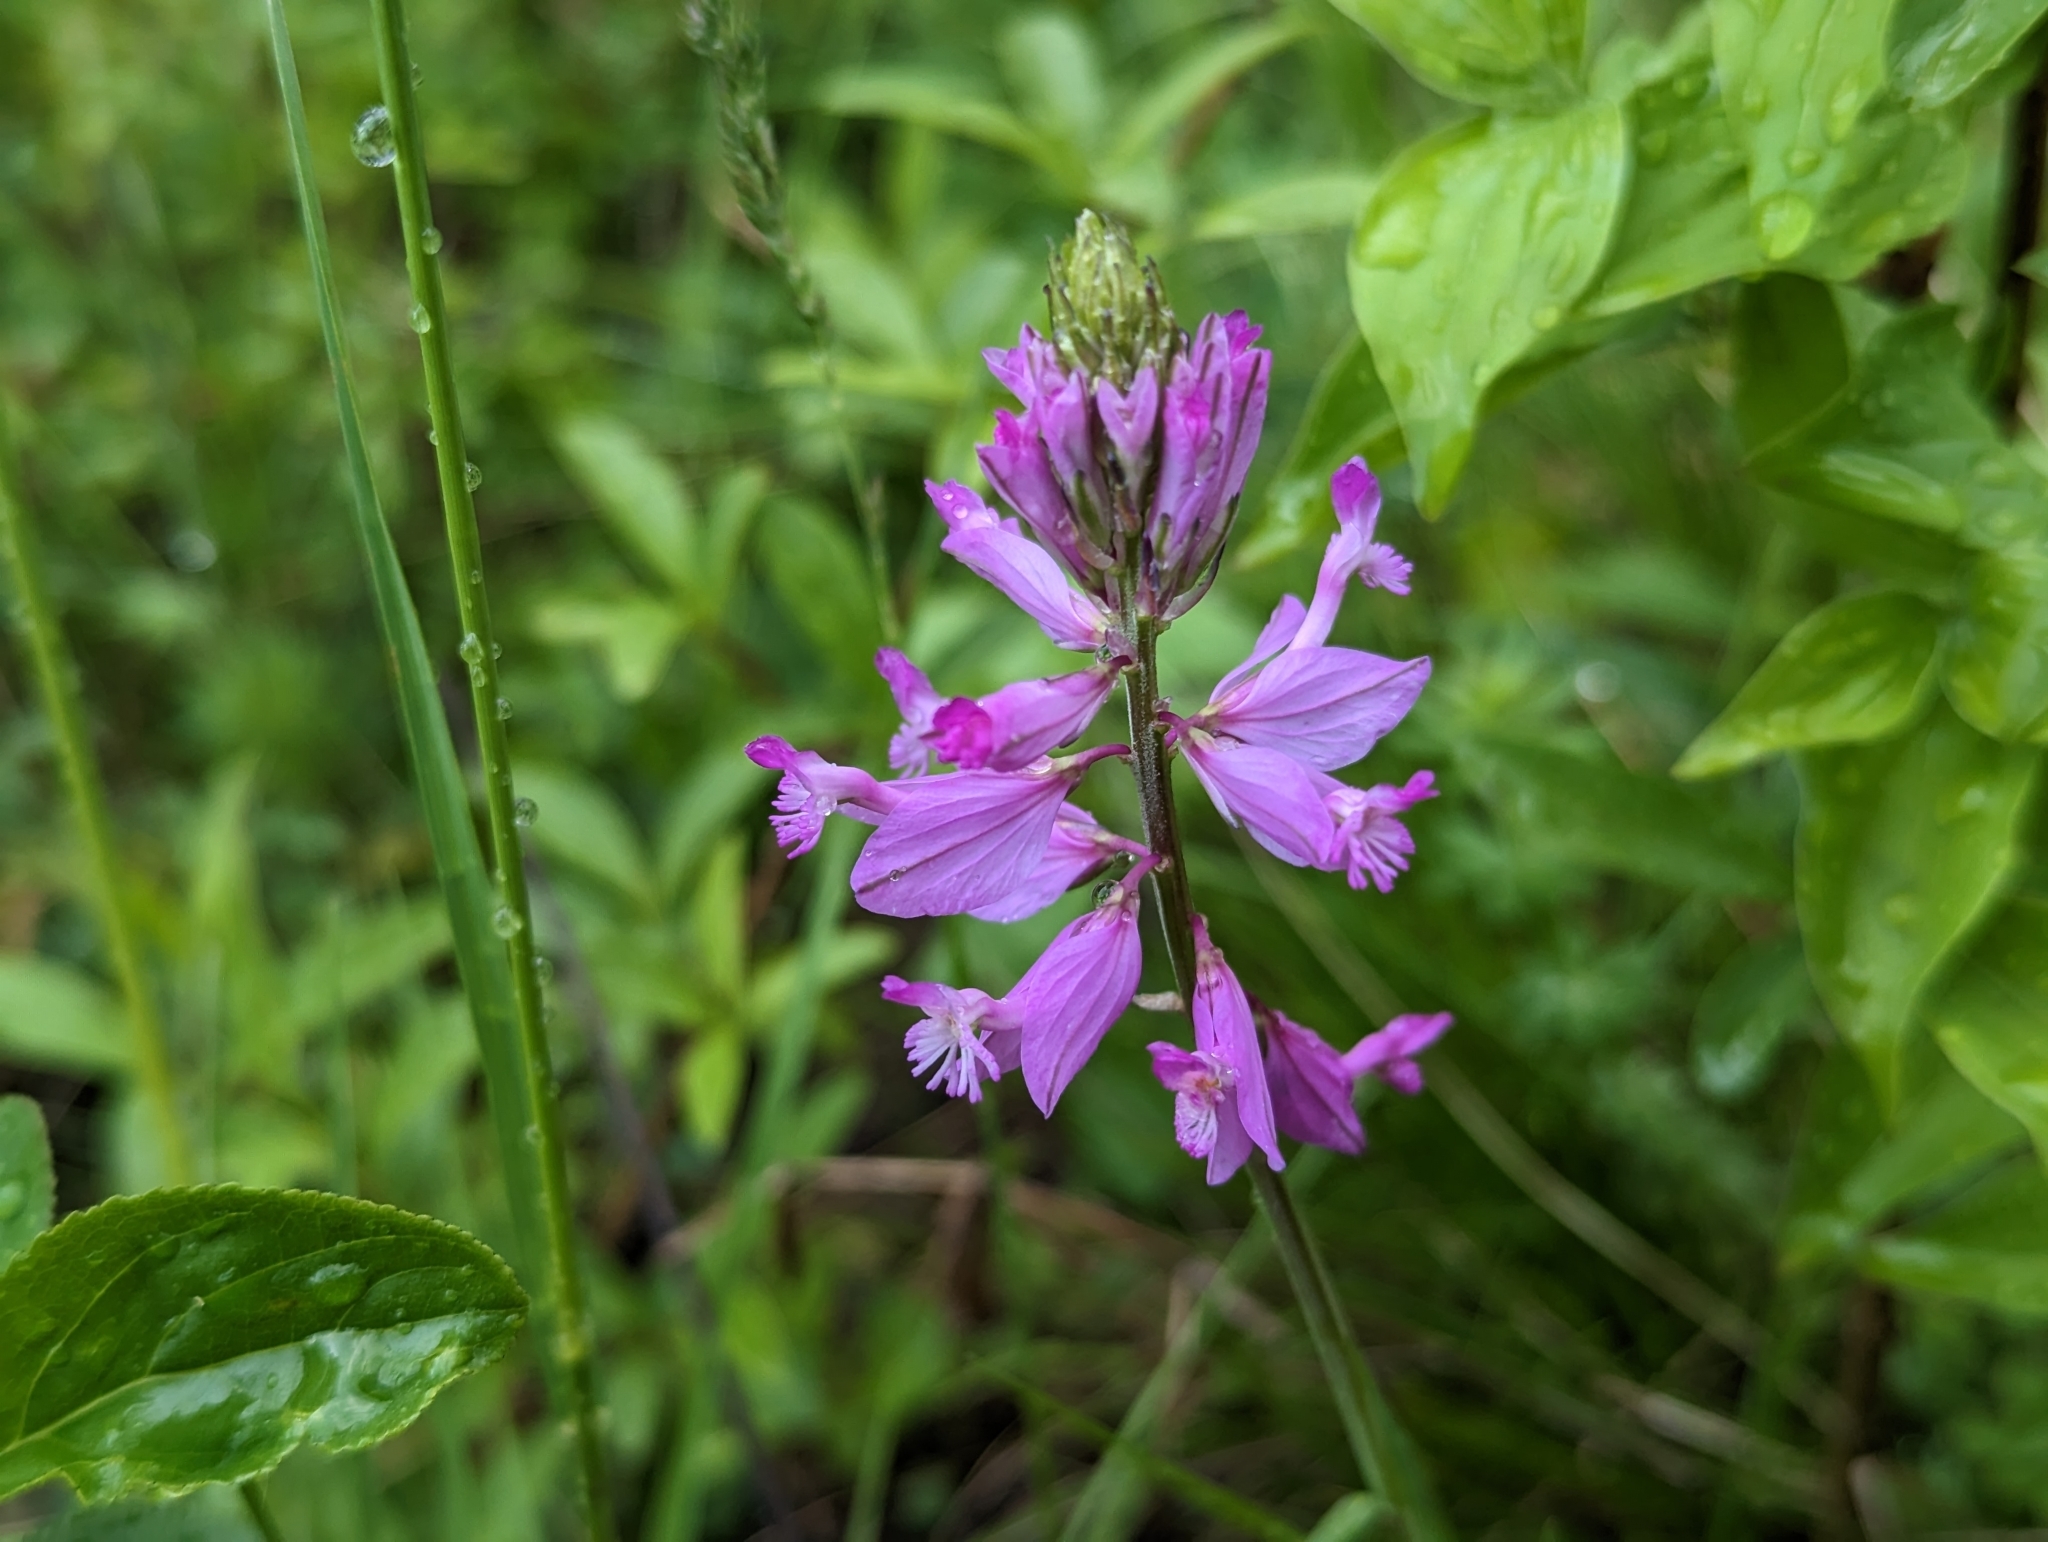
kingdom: Plantae
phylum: Tracheophyta
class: Magnoliopsida
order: Fabales
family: Polygalaceae
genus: Polygala
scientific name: Polygala major
